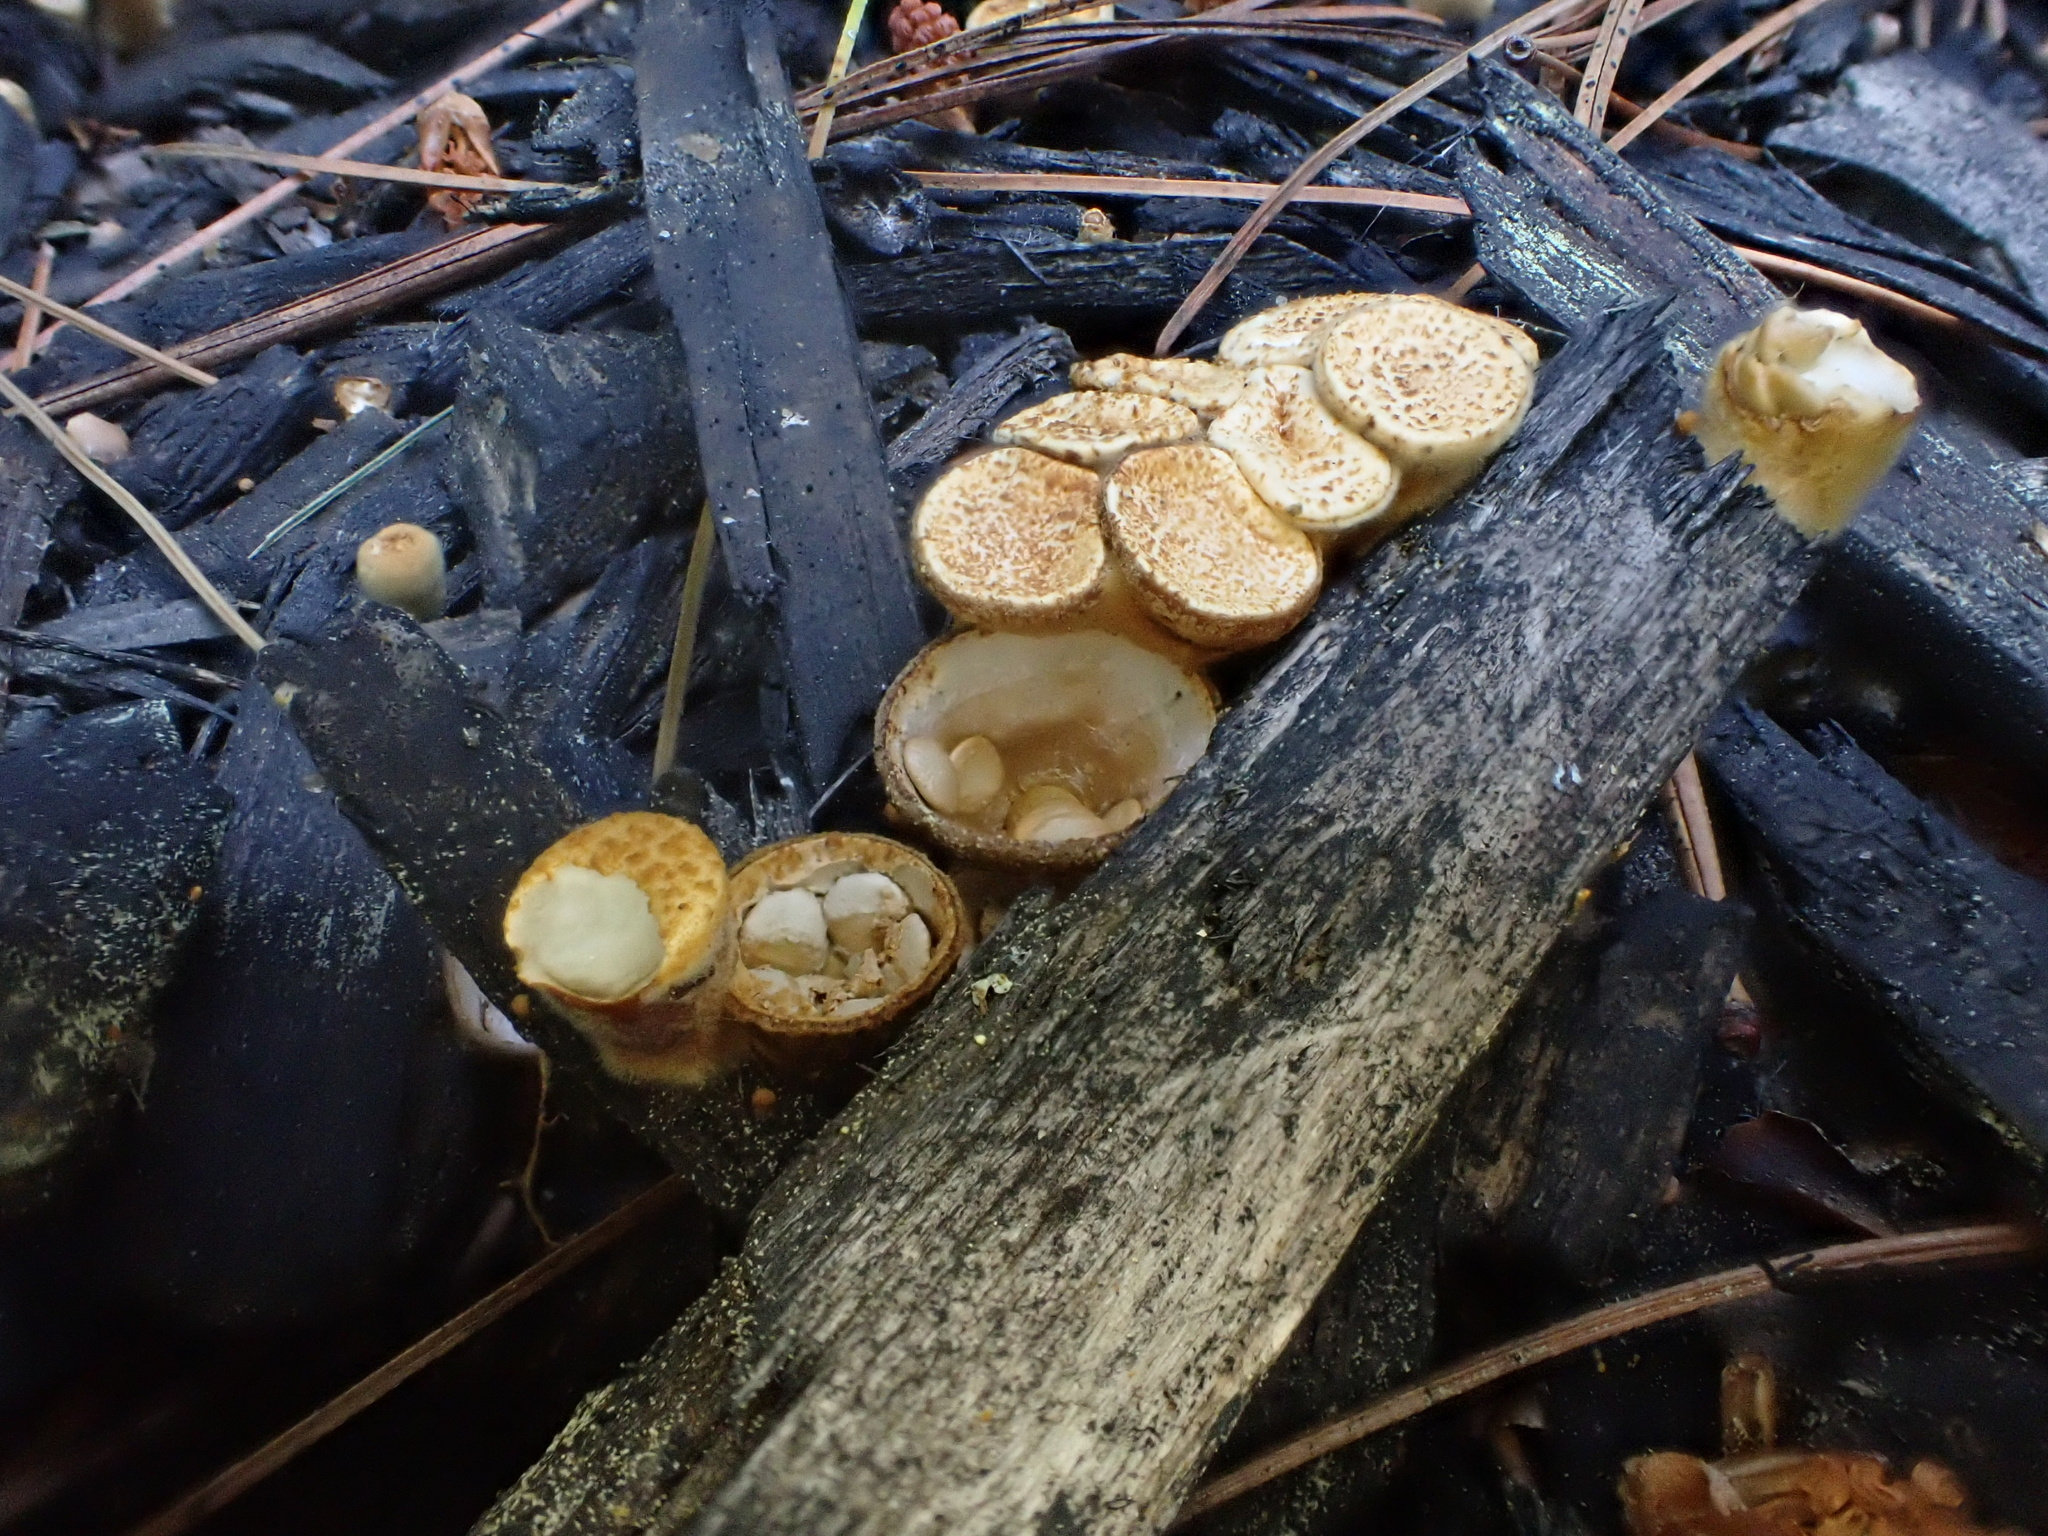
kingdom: Fungi
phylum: Basidiomycota
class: Agaricomycetes
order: Agaricales
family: Nidulariaceae
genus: Crucibulum
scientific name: Crucibulum laeve
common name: Common bird's nest
